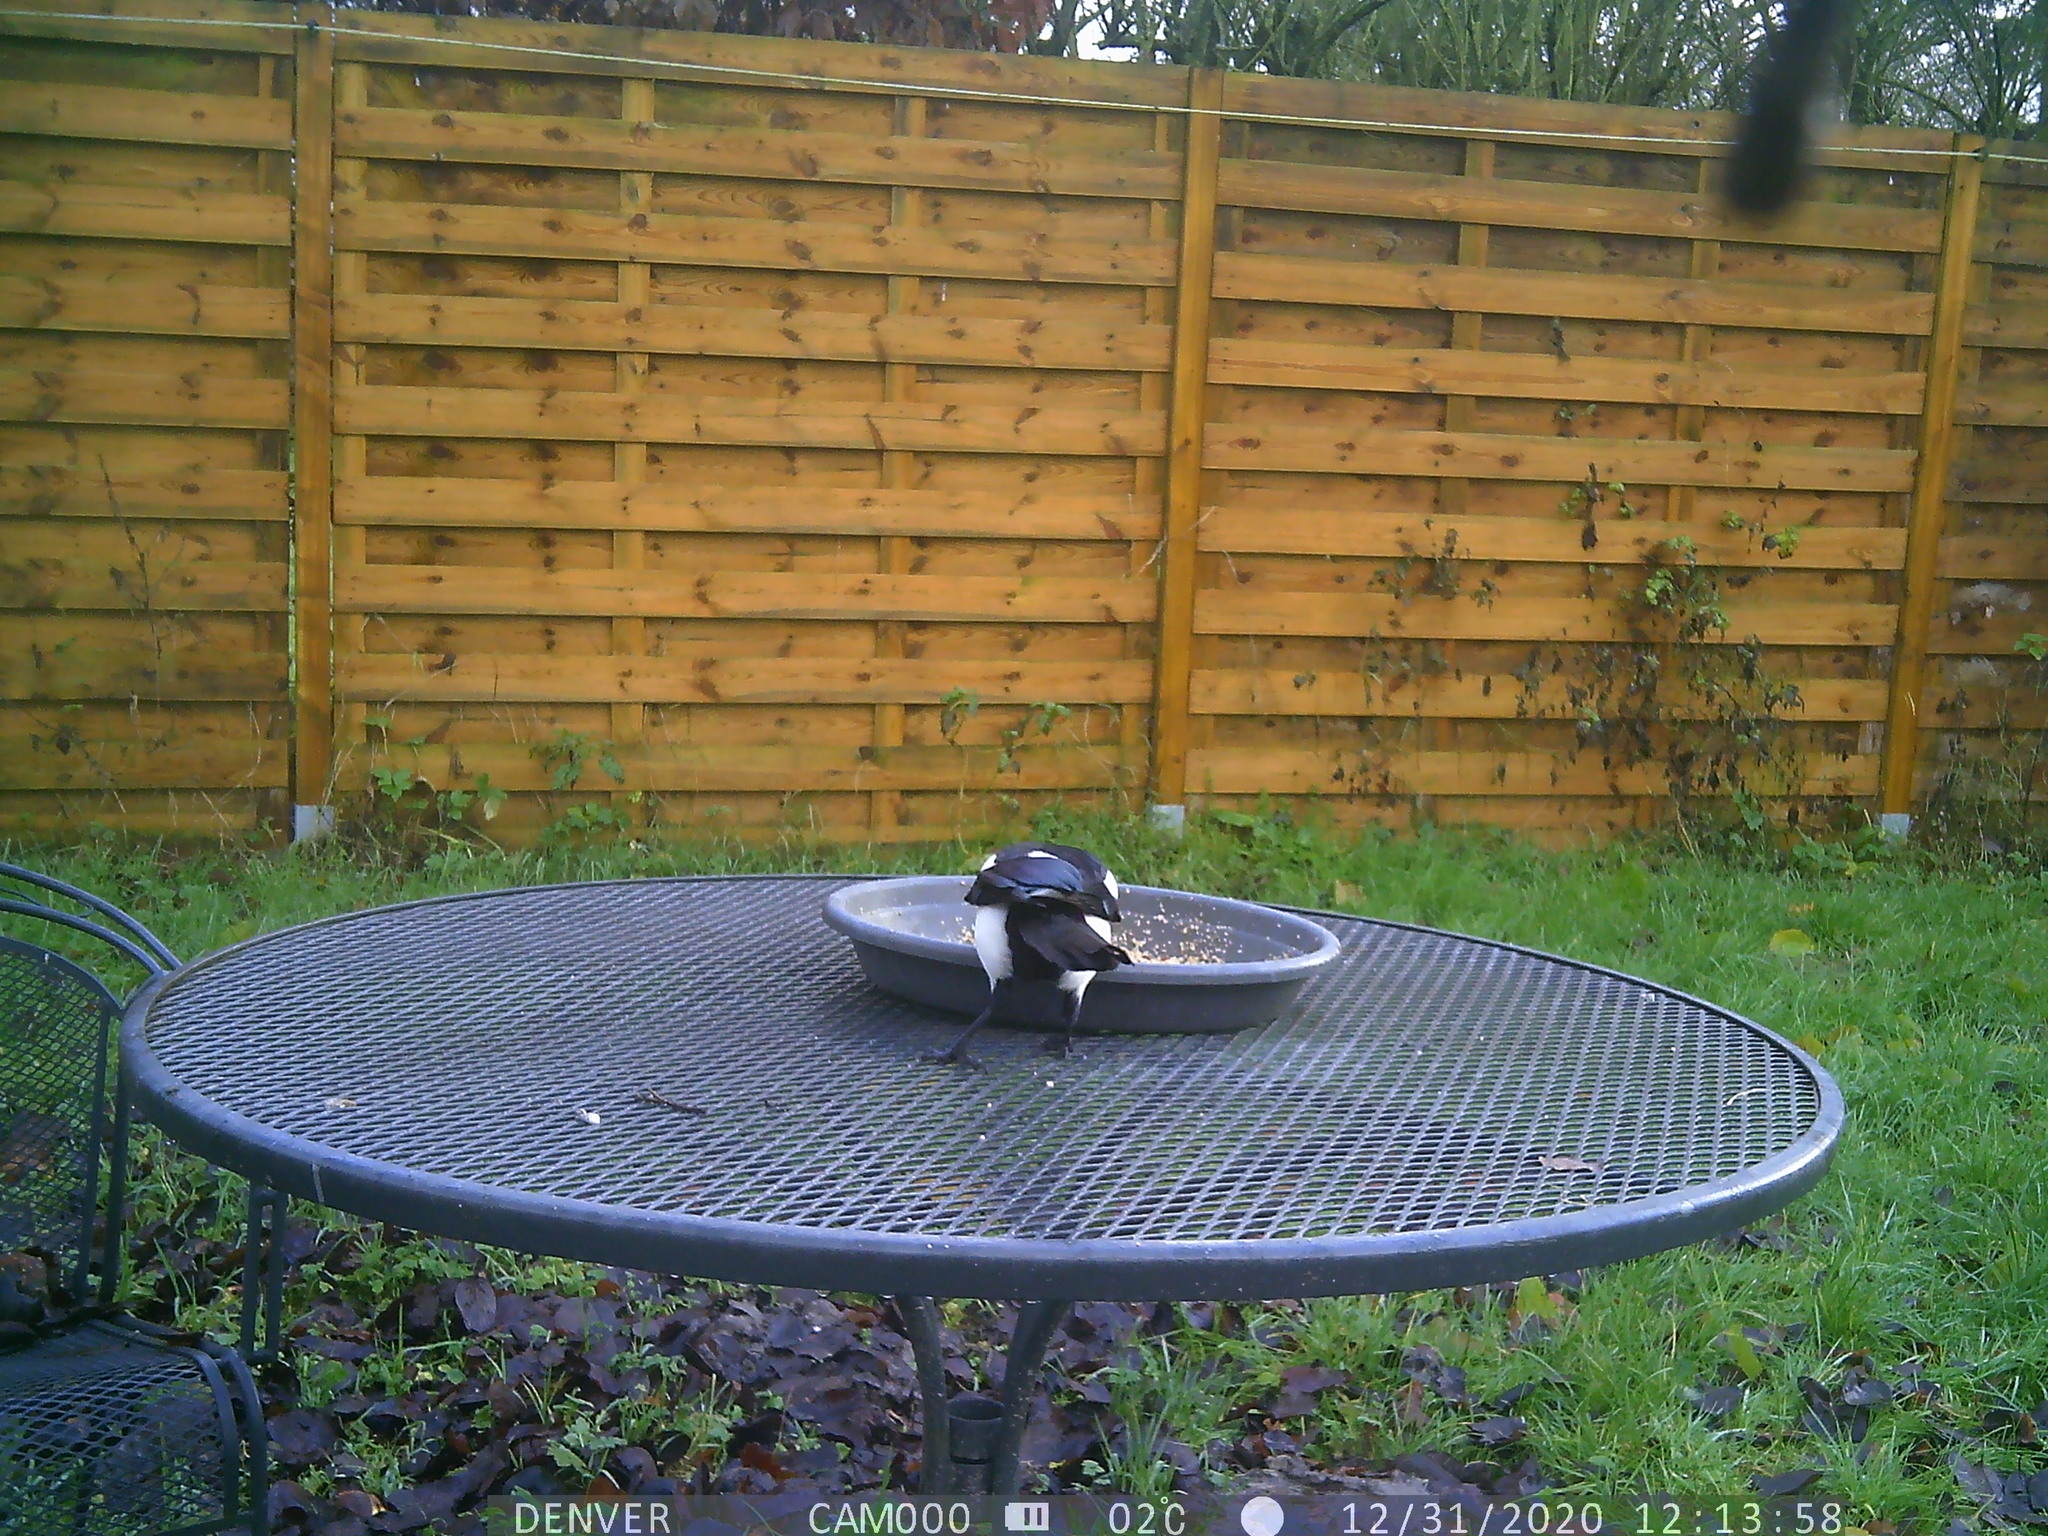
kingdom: Animalia
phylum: Chordata
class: Aves
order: Passeriformes
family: Corvidae
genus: Pica
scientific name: Pica pica
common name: Eurasian magpie
